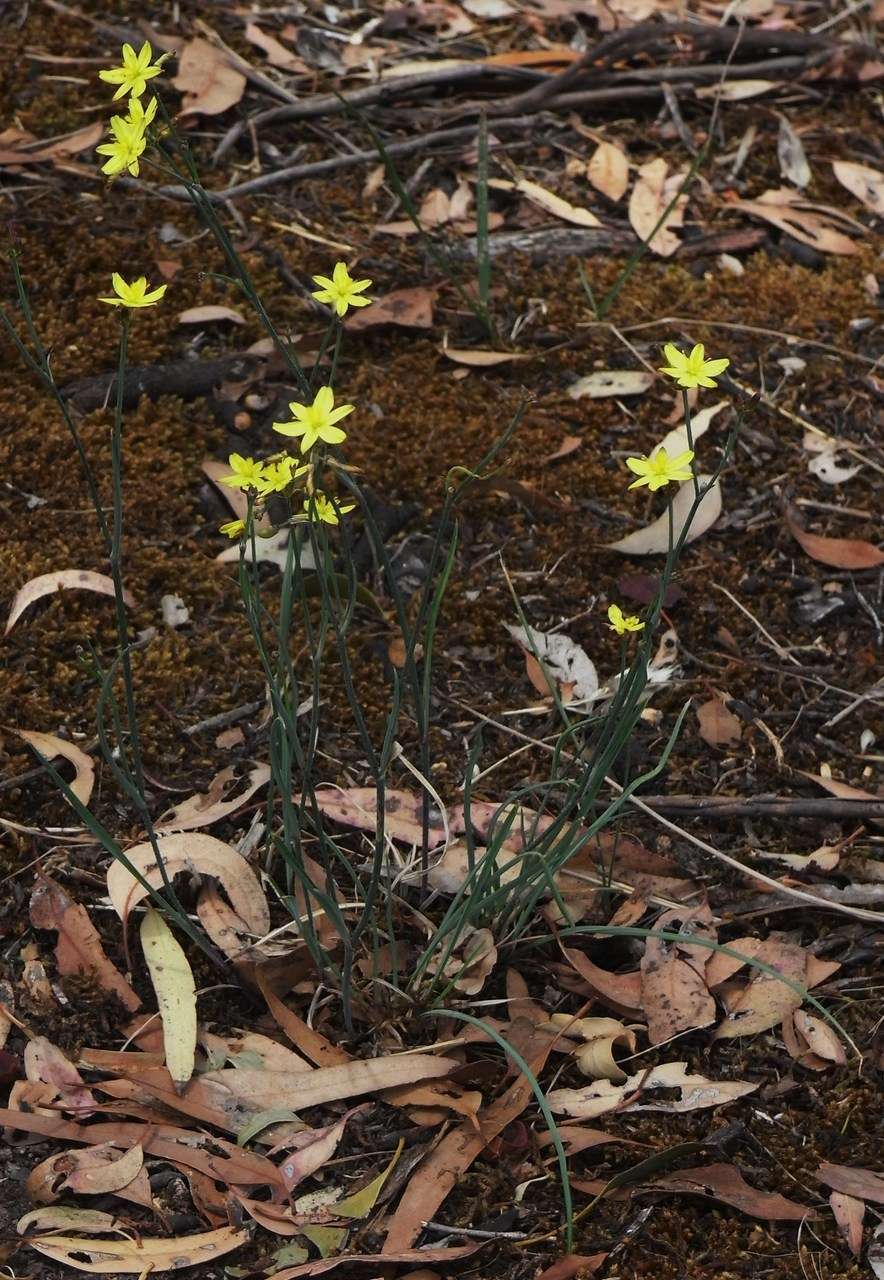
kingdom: Plantae
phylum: Tracheophyta
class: Liliopsida
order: Asparagales
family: Asphodelaceae
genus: Tricoryne
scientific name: Tricoryne elatior
